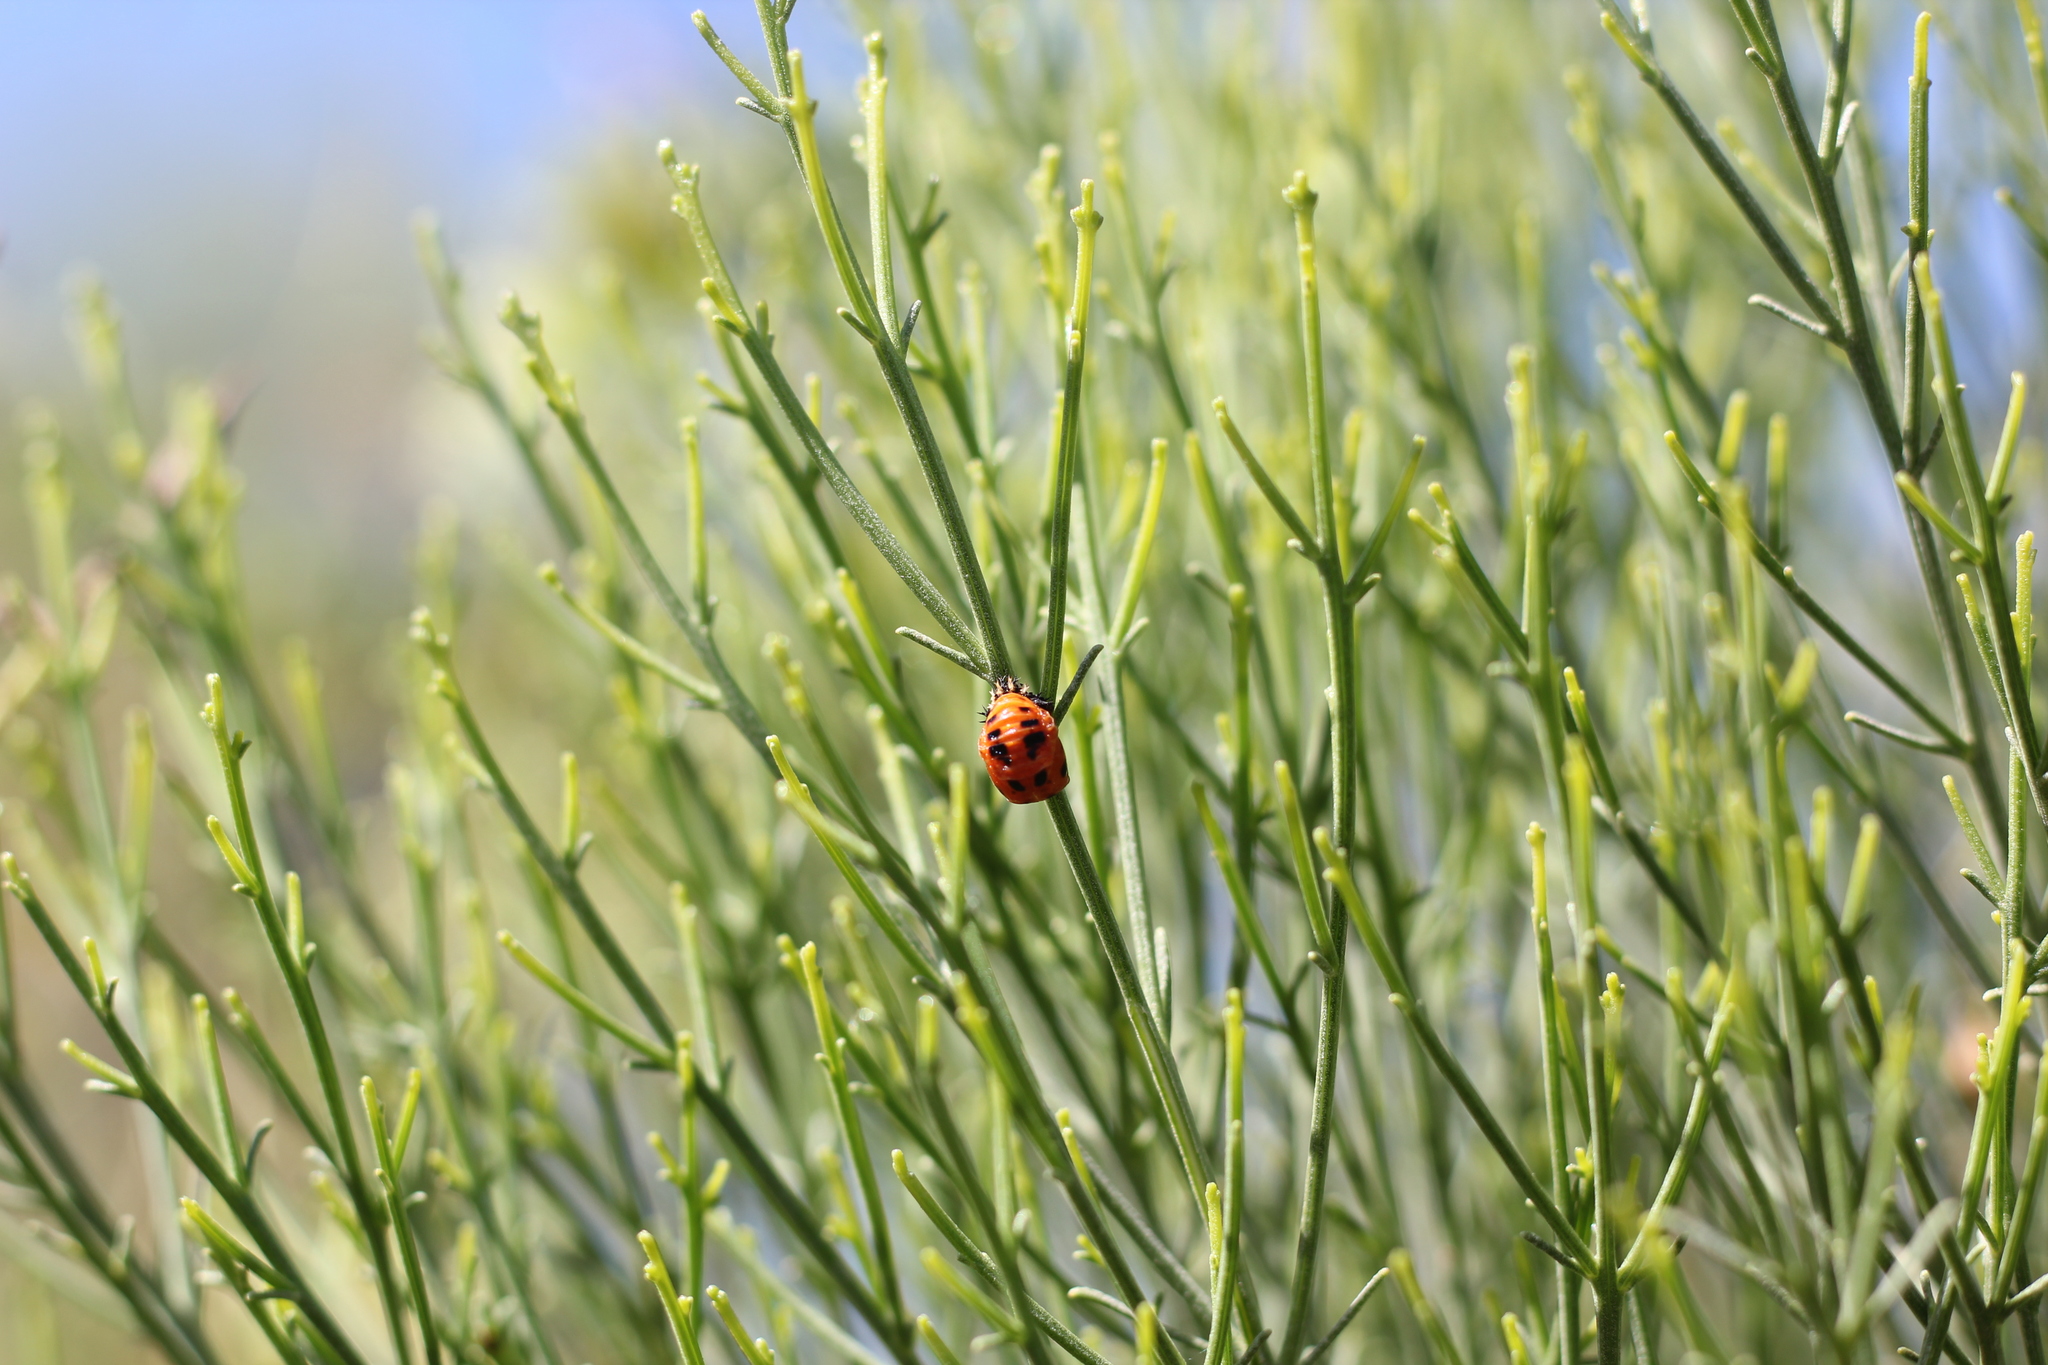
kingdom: Animalia
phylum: Arthropoda
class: Insecta
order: Coleoptera
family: Coccinellidae
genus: Harmonia
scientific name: Harmonia axyridis
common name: Harlequin ladybird
